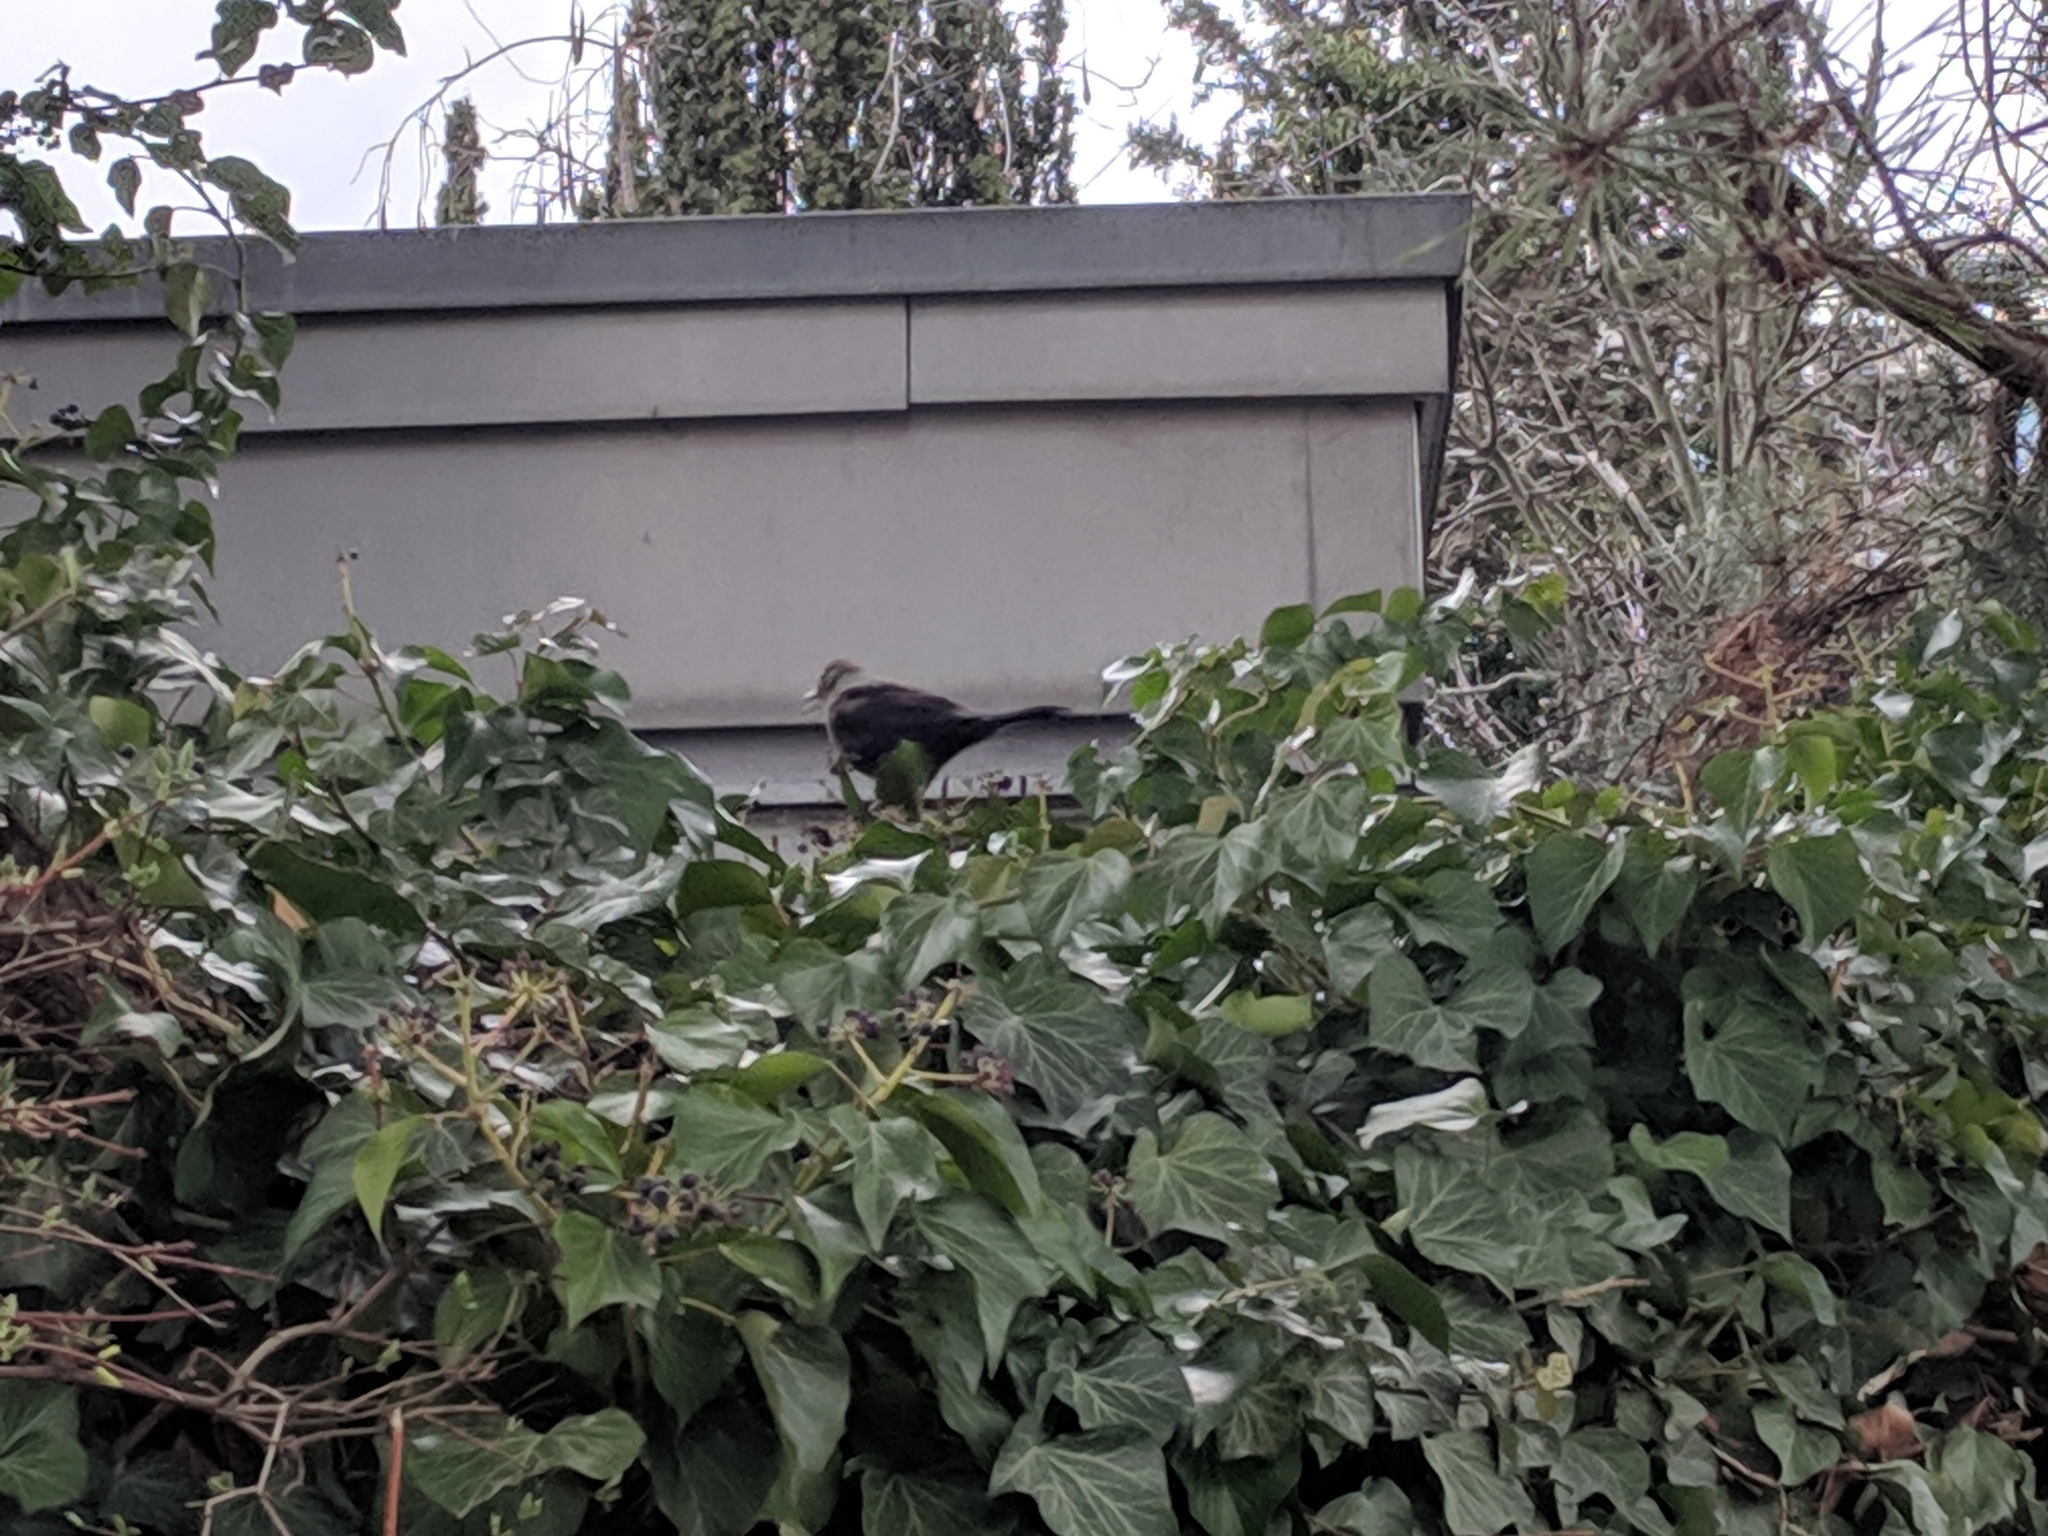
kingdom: Animalia
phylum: Chordata
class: Aves
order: Passeriformes
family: Turdidae
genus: Turdus
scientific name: Turdus merula
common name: Common blackbird
